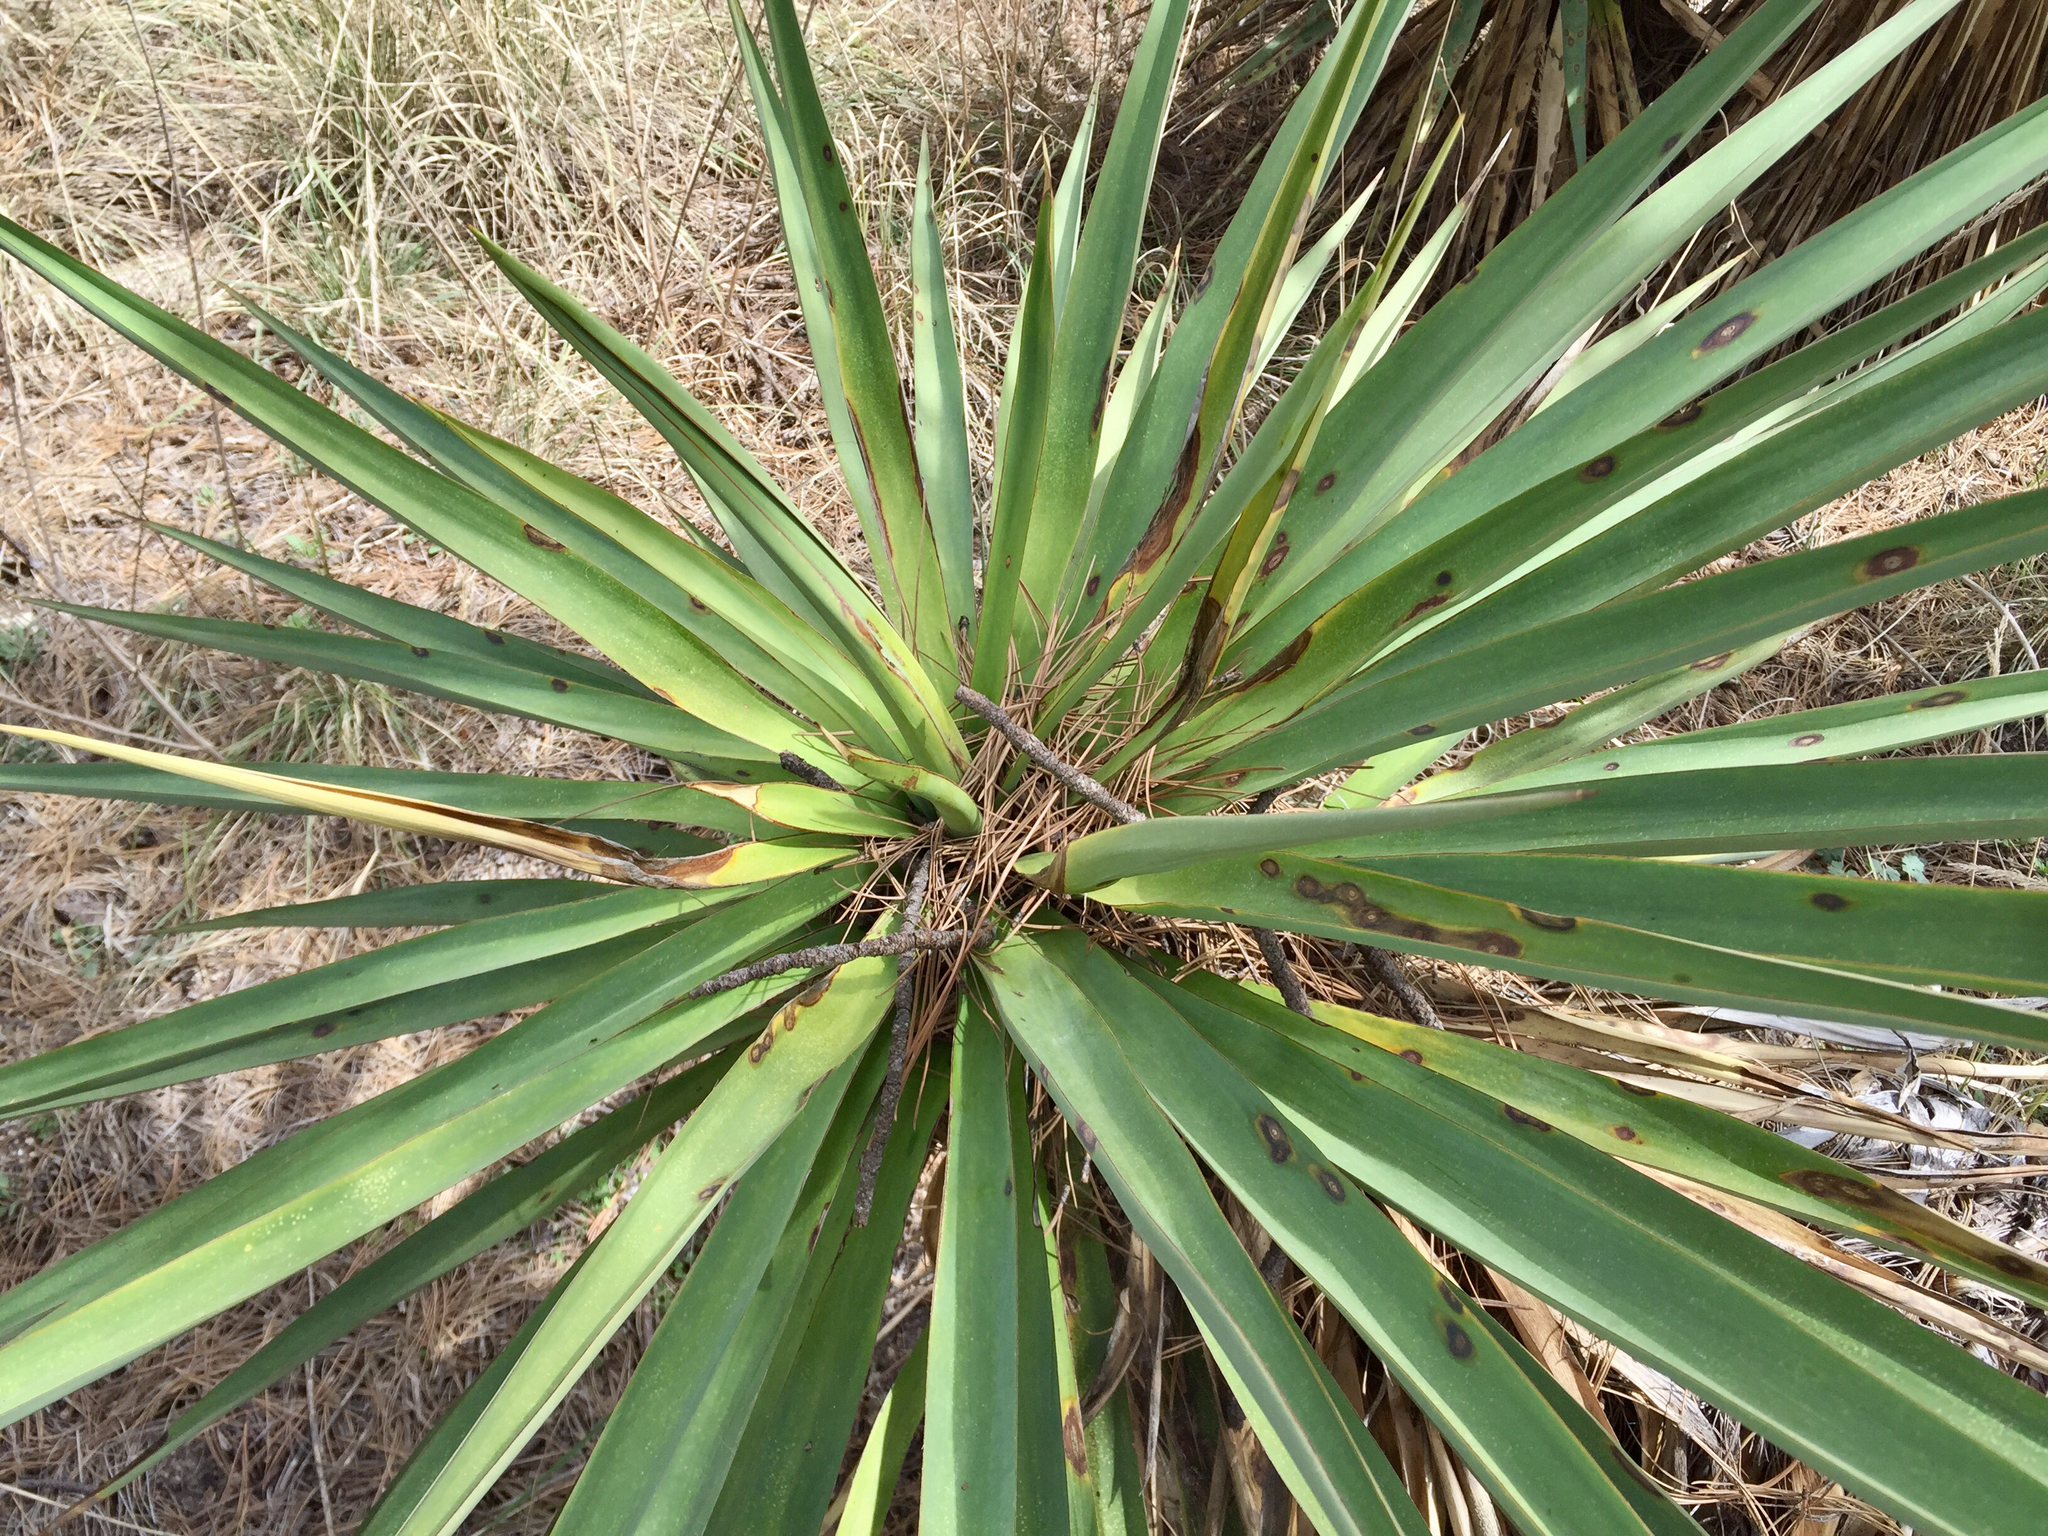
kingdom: Plantae
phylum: Tracheophyta
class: Liliopsida
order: Asparagales
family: Asparagaceae
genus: Yucca
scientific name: Yucca schottii
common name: Hoary yucca
